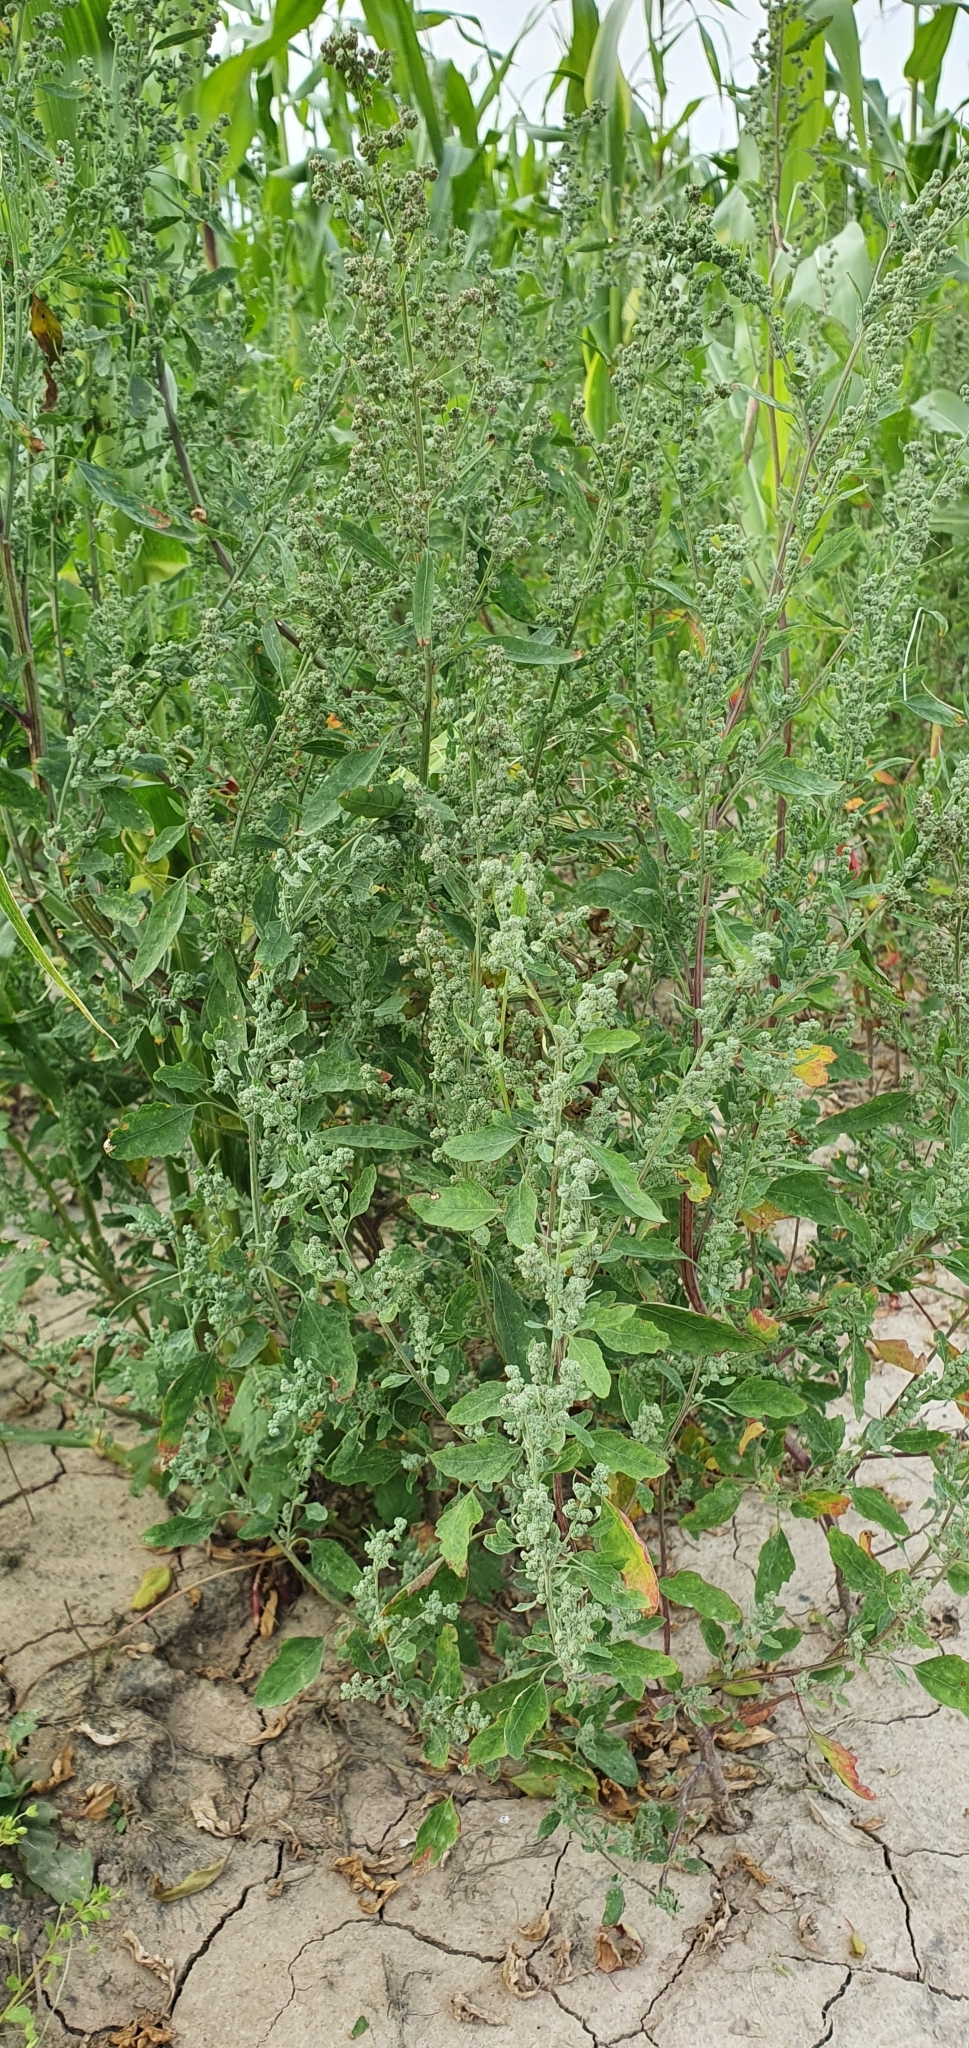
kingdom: Plantae
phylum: Tracheophyta
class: Magnoliopsida
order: Caryophyllales
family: Amaranthaceae
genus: Chenopodium
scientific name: Chenopodium album
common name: Fat-hen
